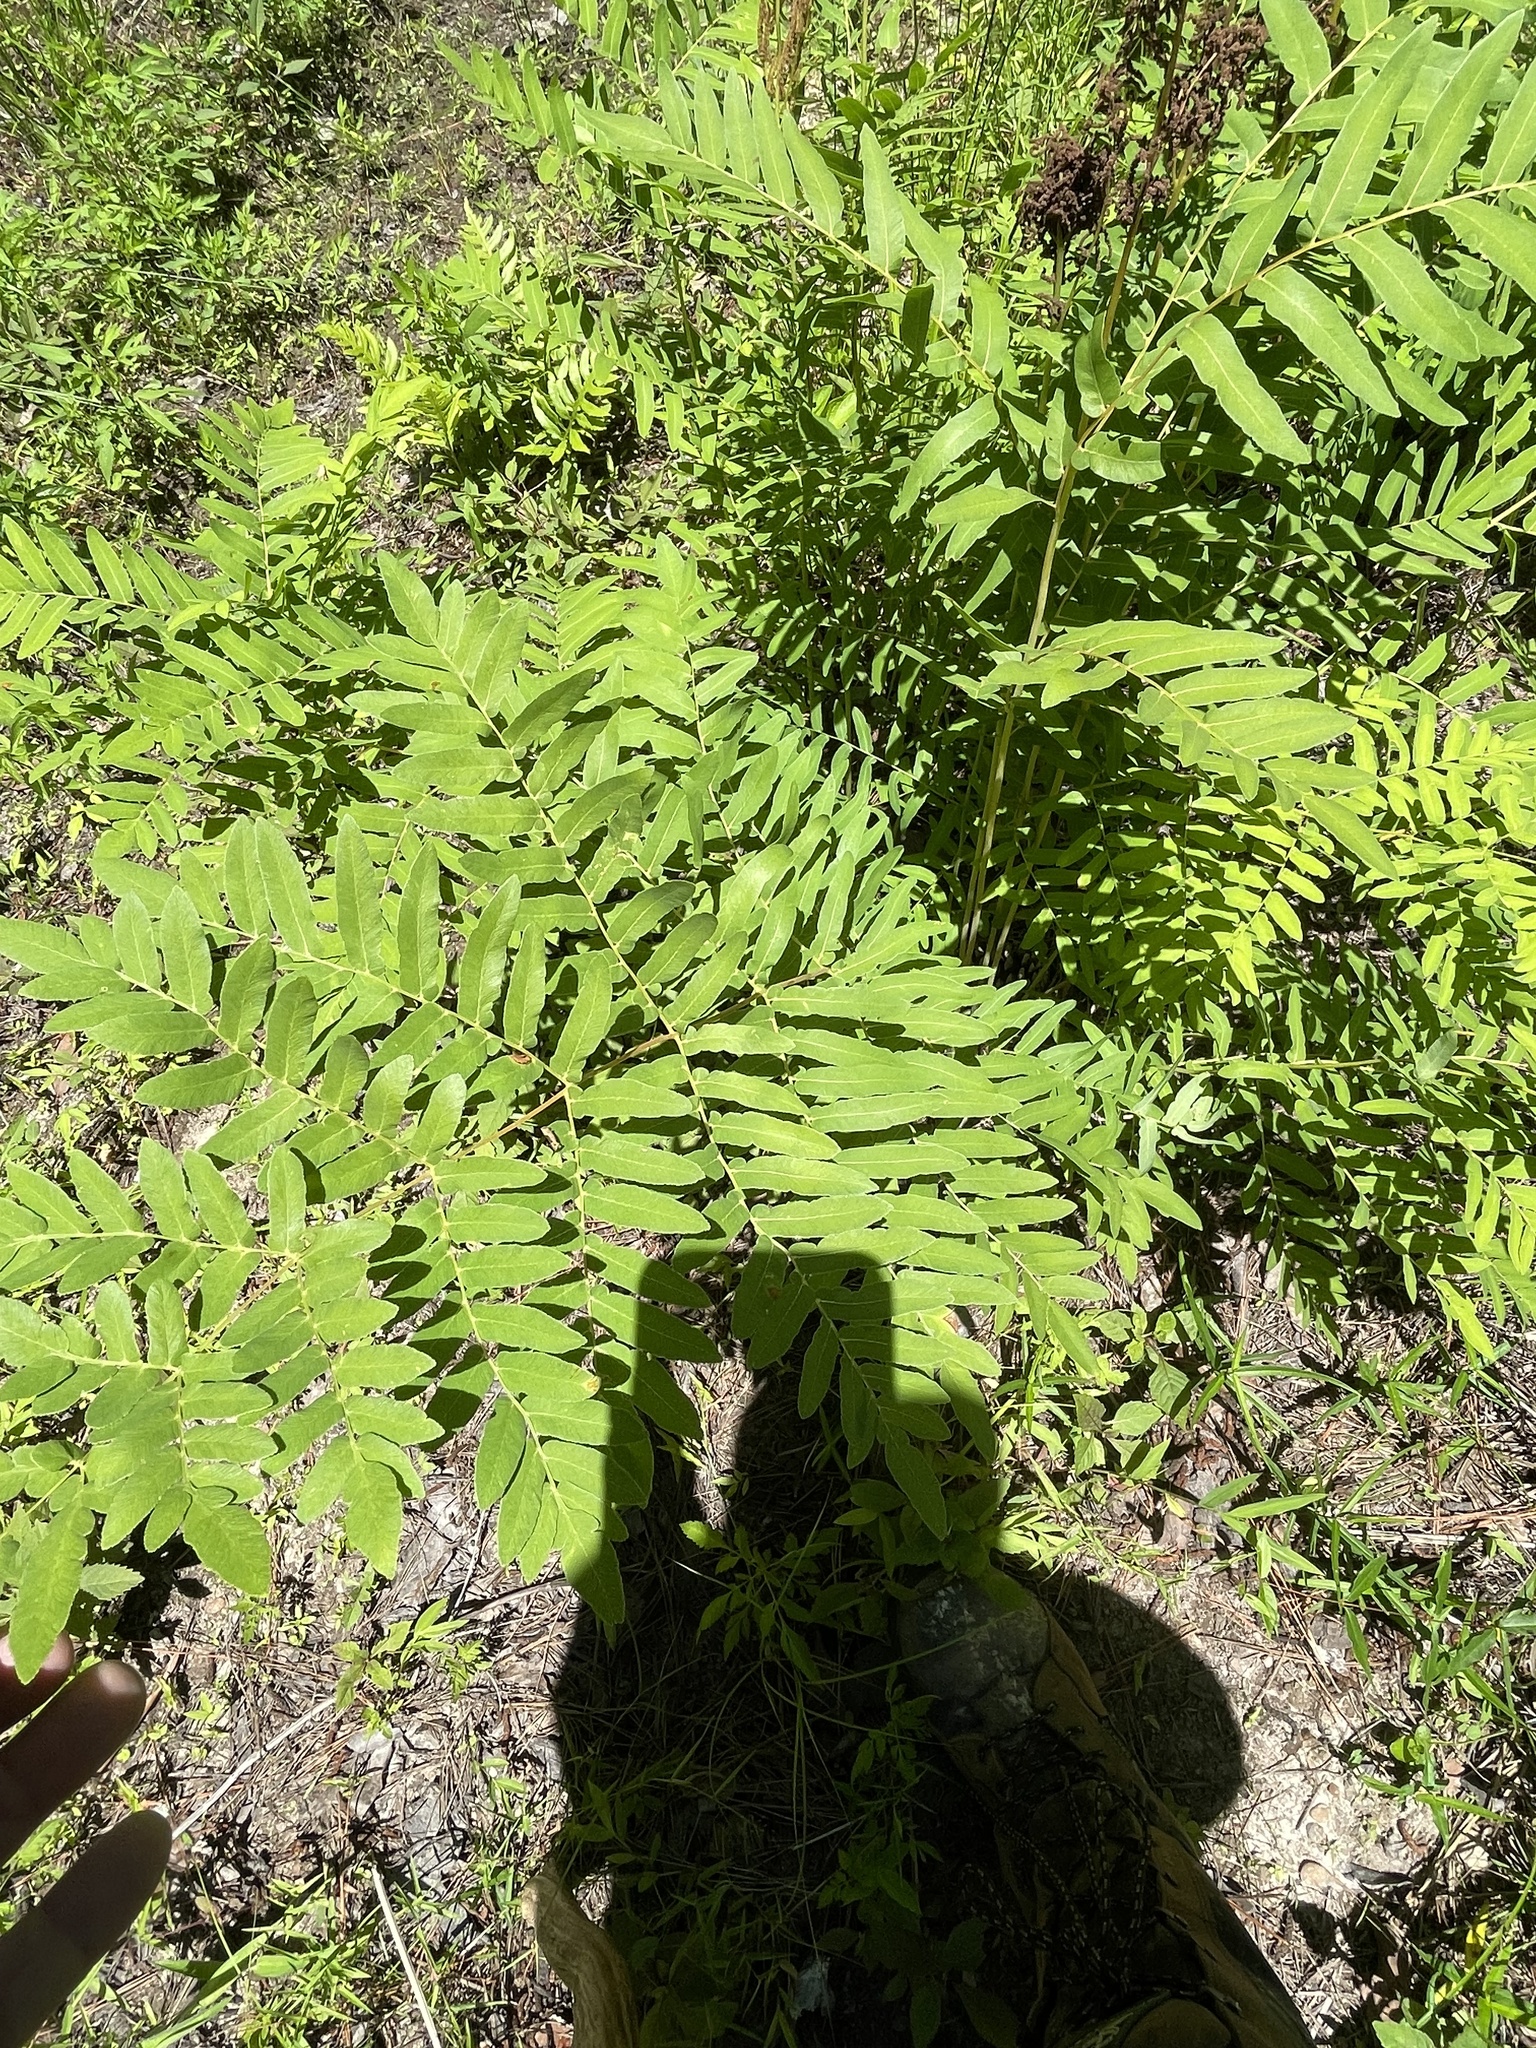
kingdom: Plantae
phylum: Tracheophyta
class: Polypodiopsida
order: Osmundales
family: Osmundaceae
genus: Osmunda
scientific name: Osmunda spectabilis
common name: American royal fern
